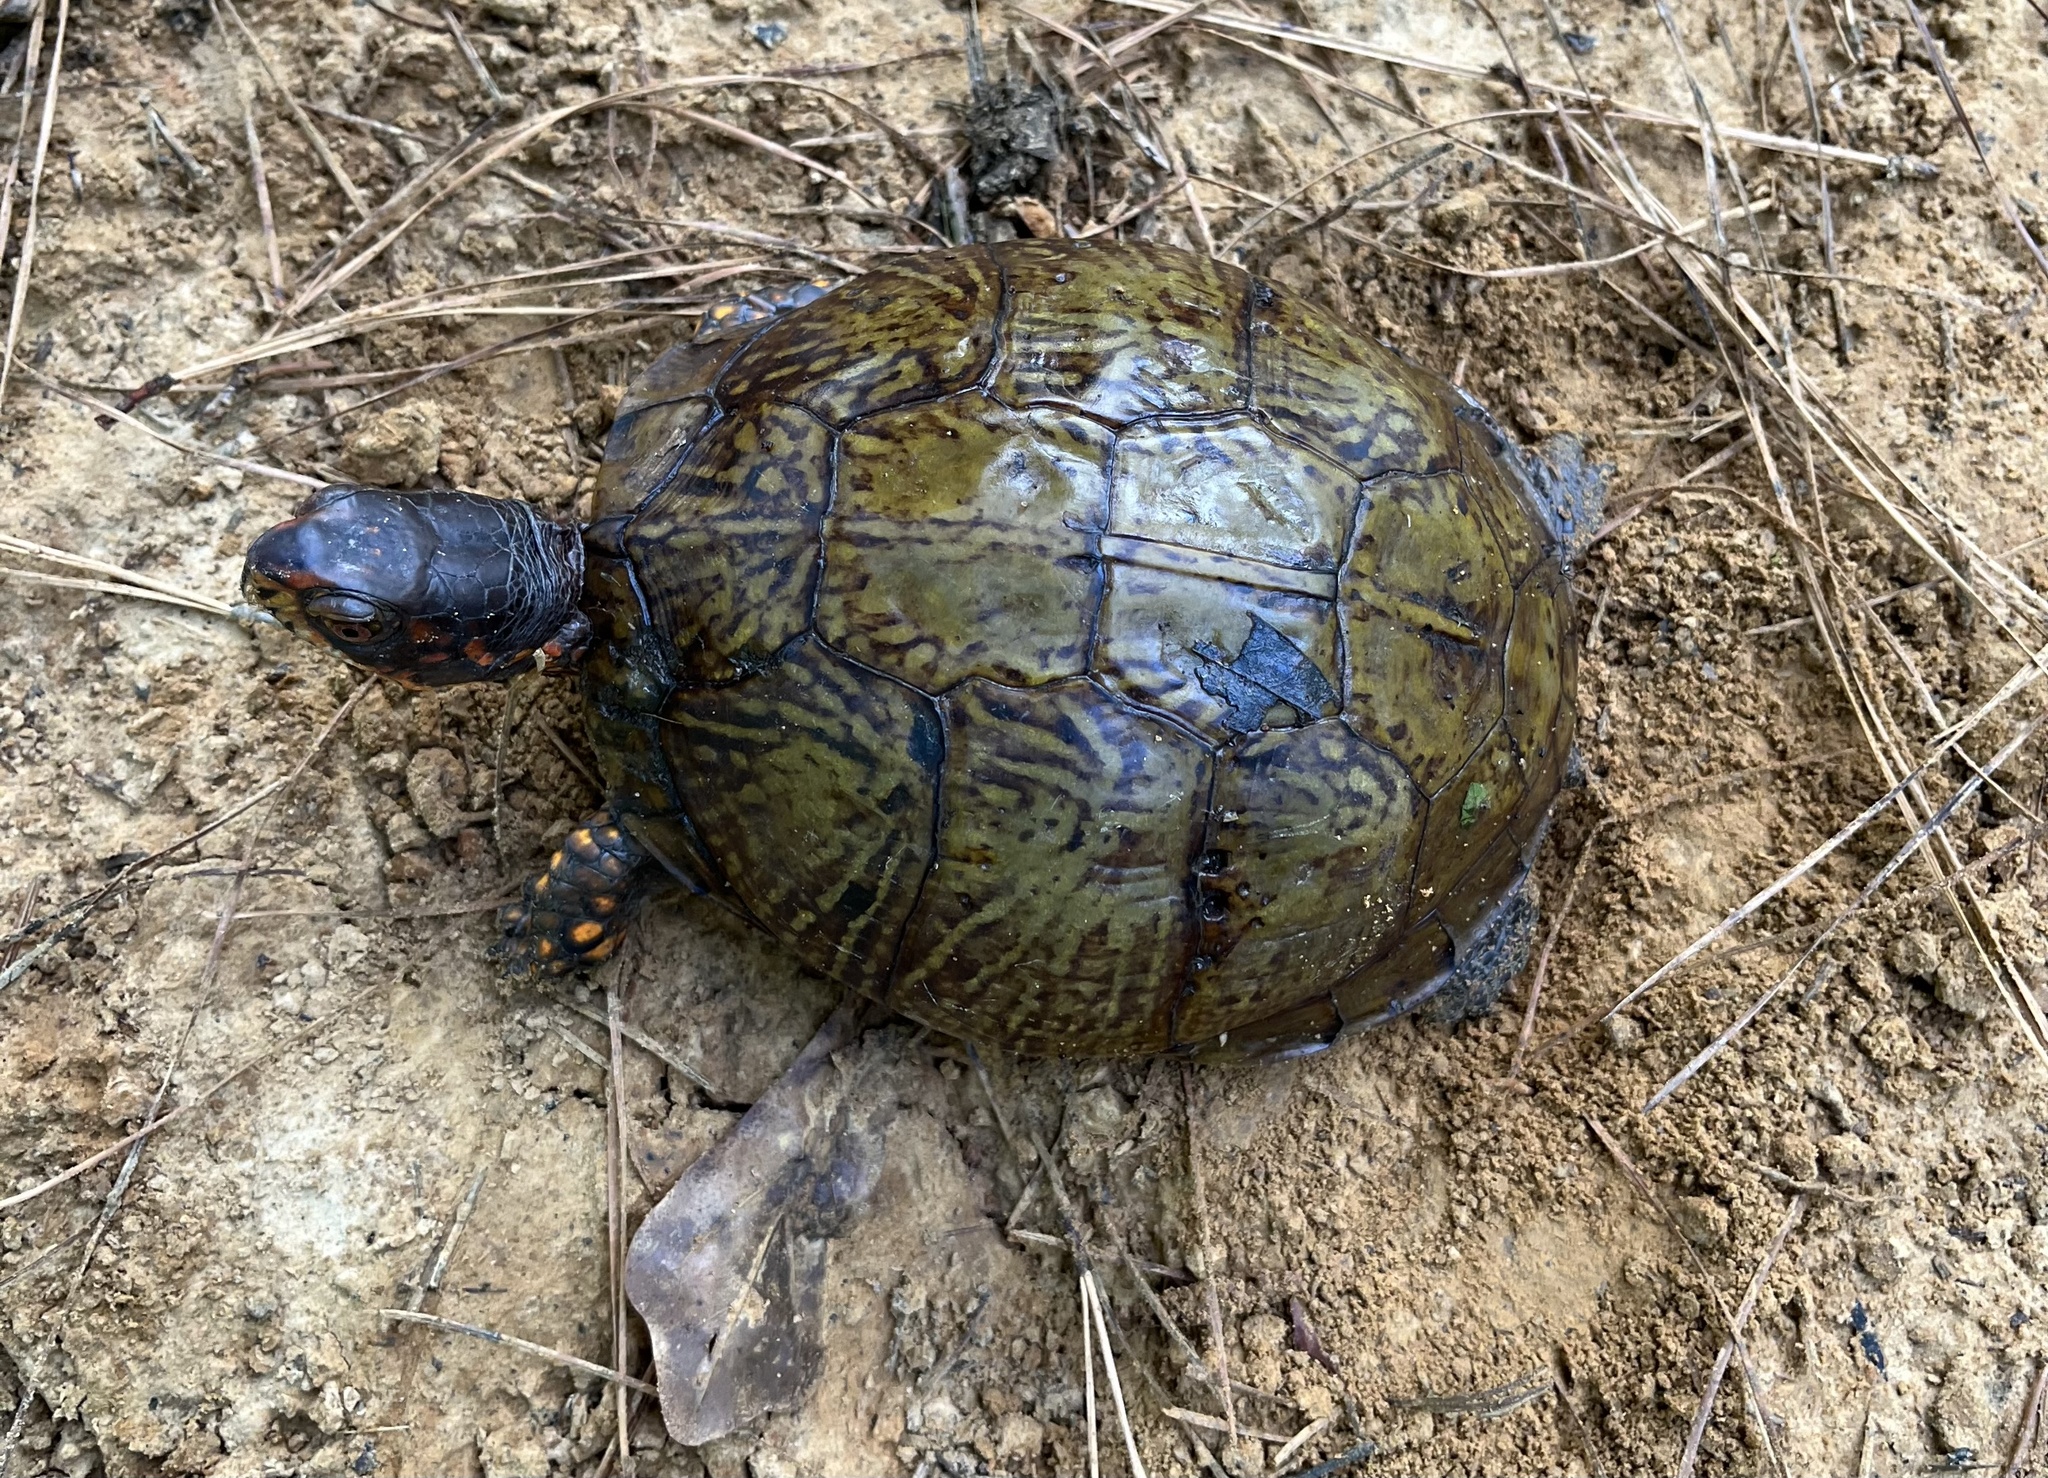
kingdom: Animalia
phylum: Chordata
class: Testudines
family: Emydidae
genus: Terrapene
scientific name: Terrapene carolina
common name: Common box turtle
